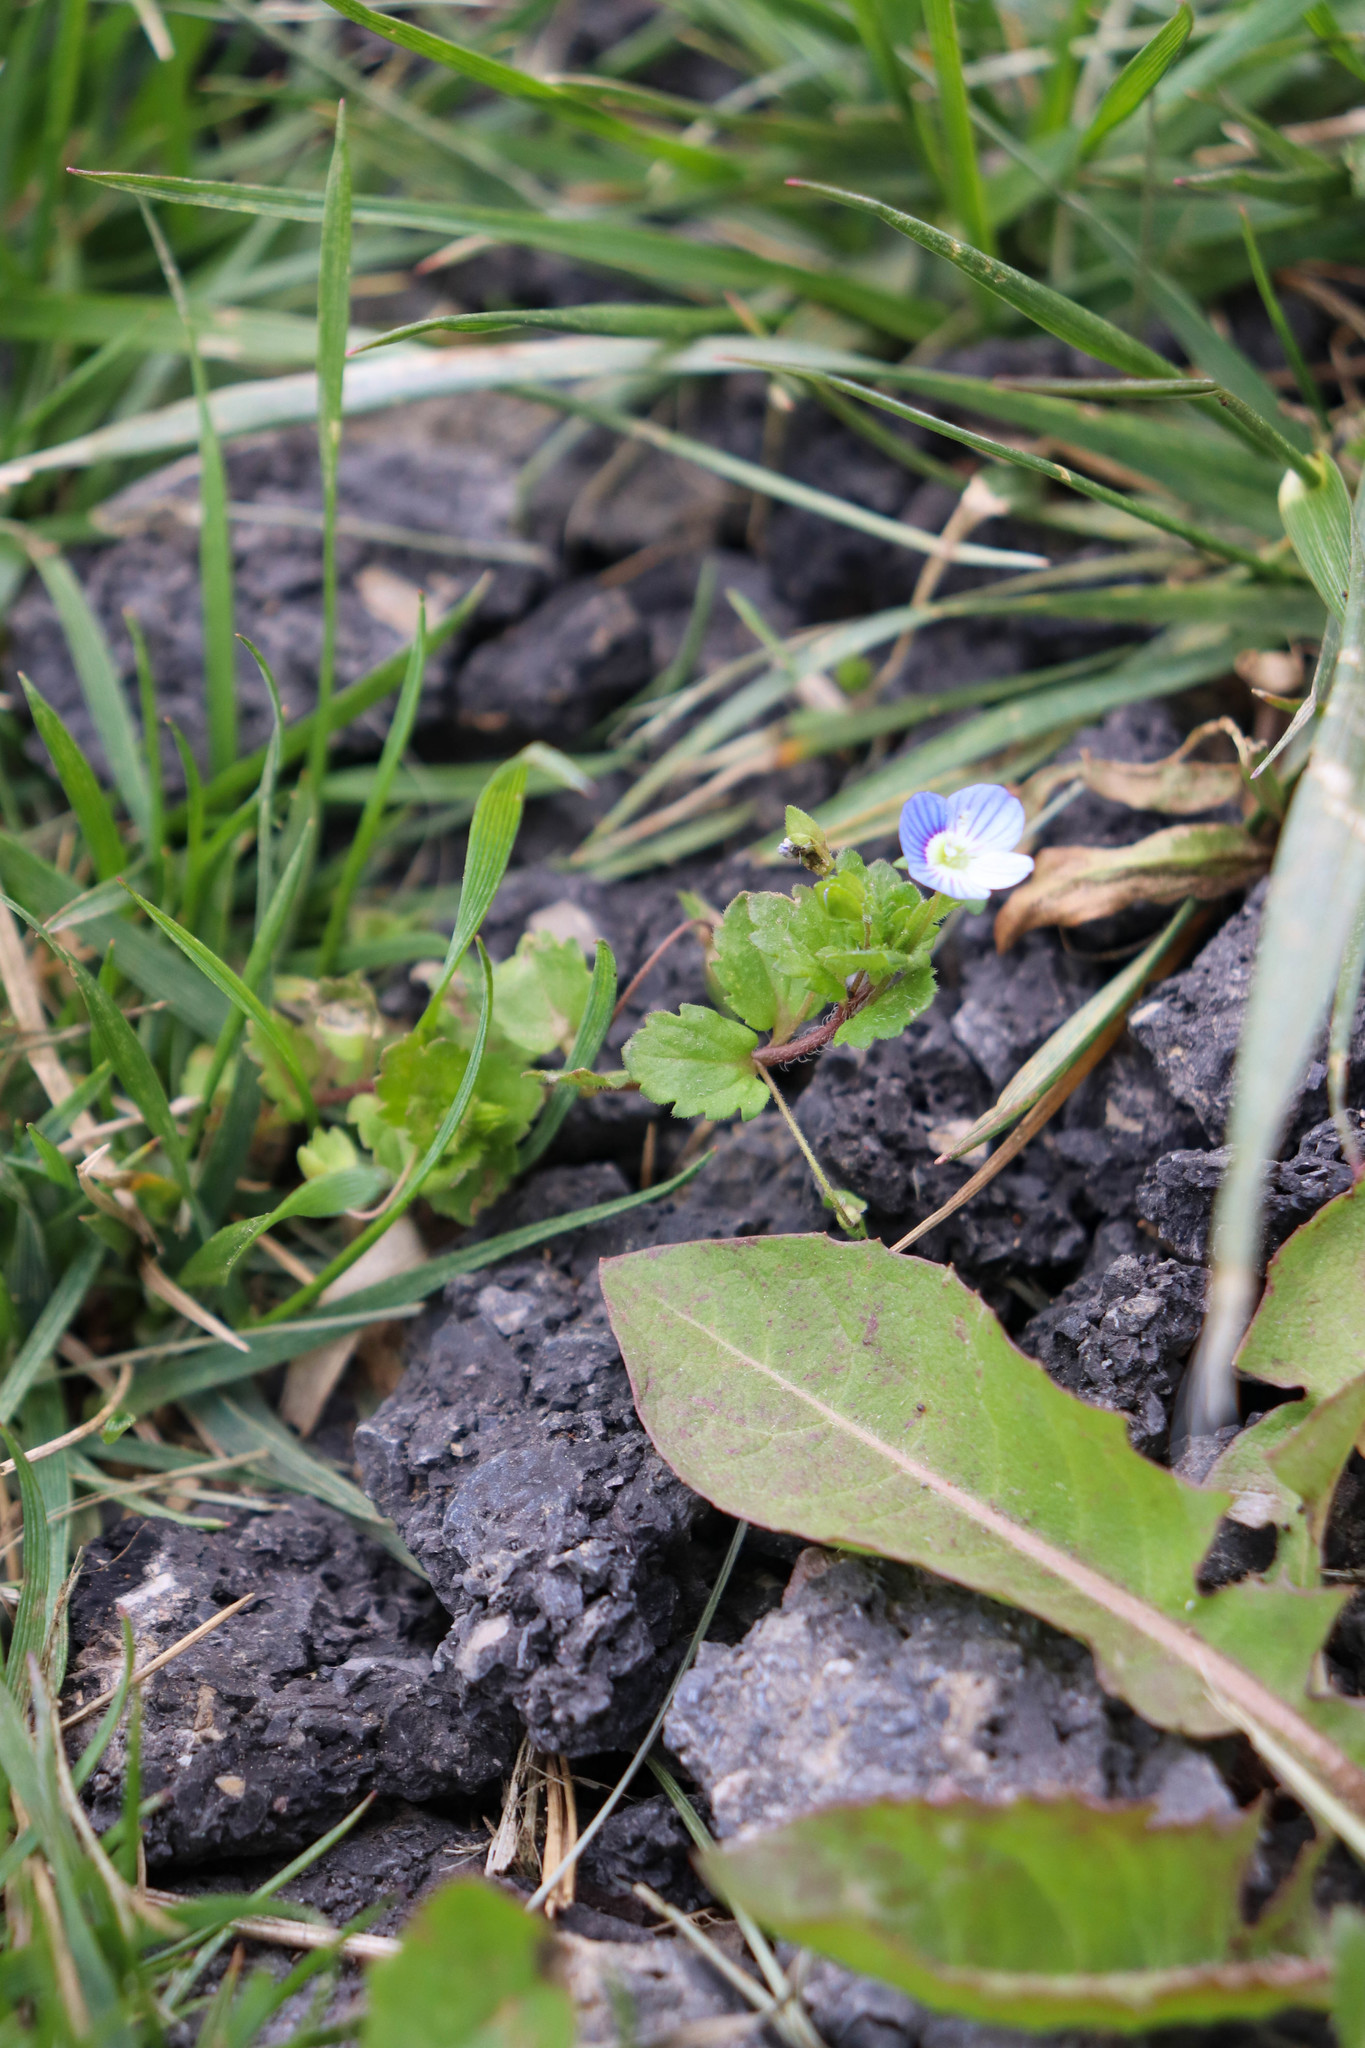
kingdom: Plantae
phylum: Tracheophyta
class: Magnoliopsida
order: Lamiales
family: Plantaginaceae
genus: Veronica
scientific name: Veronica persica
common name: Common field-speedwell
